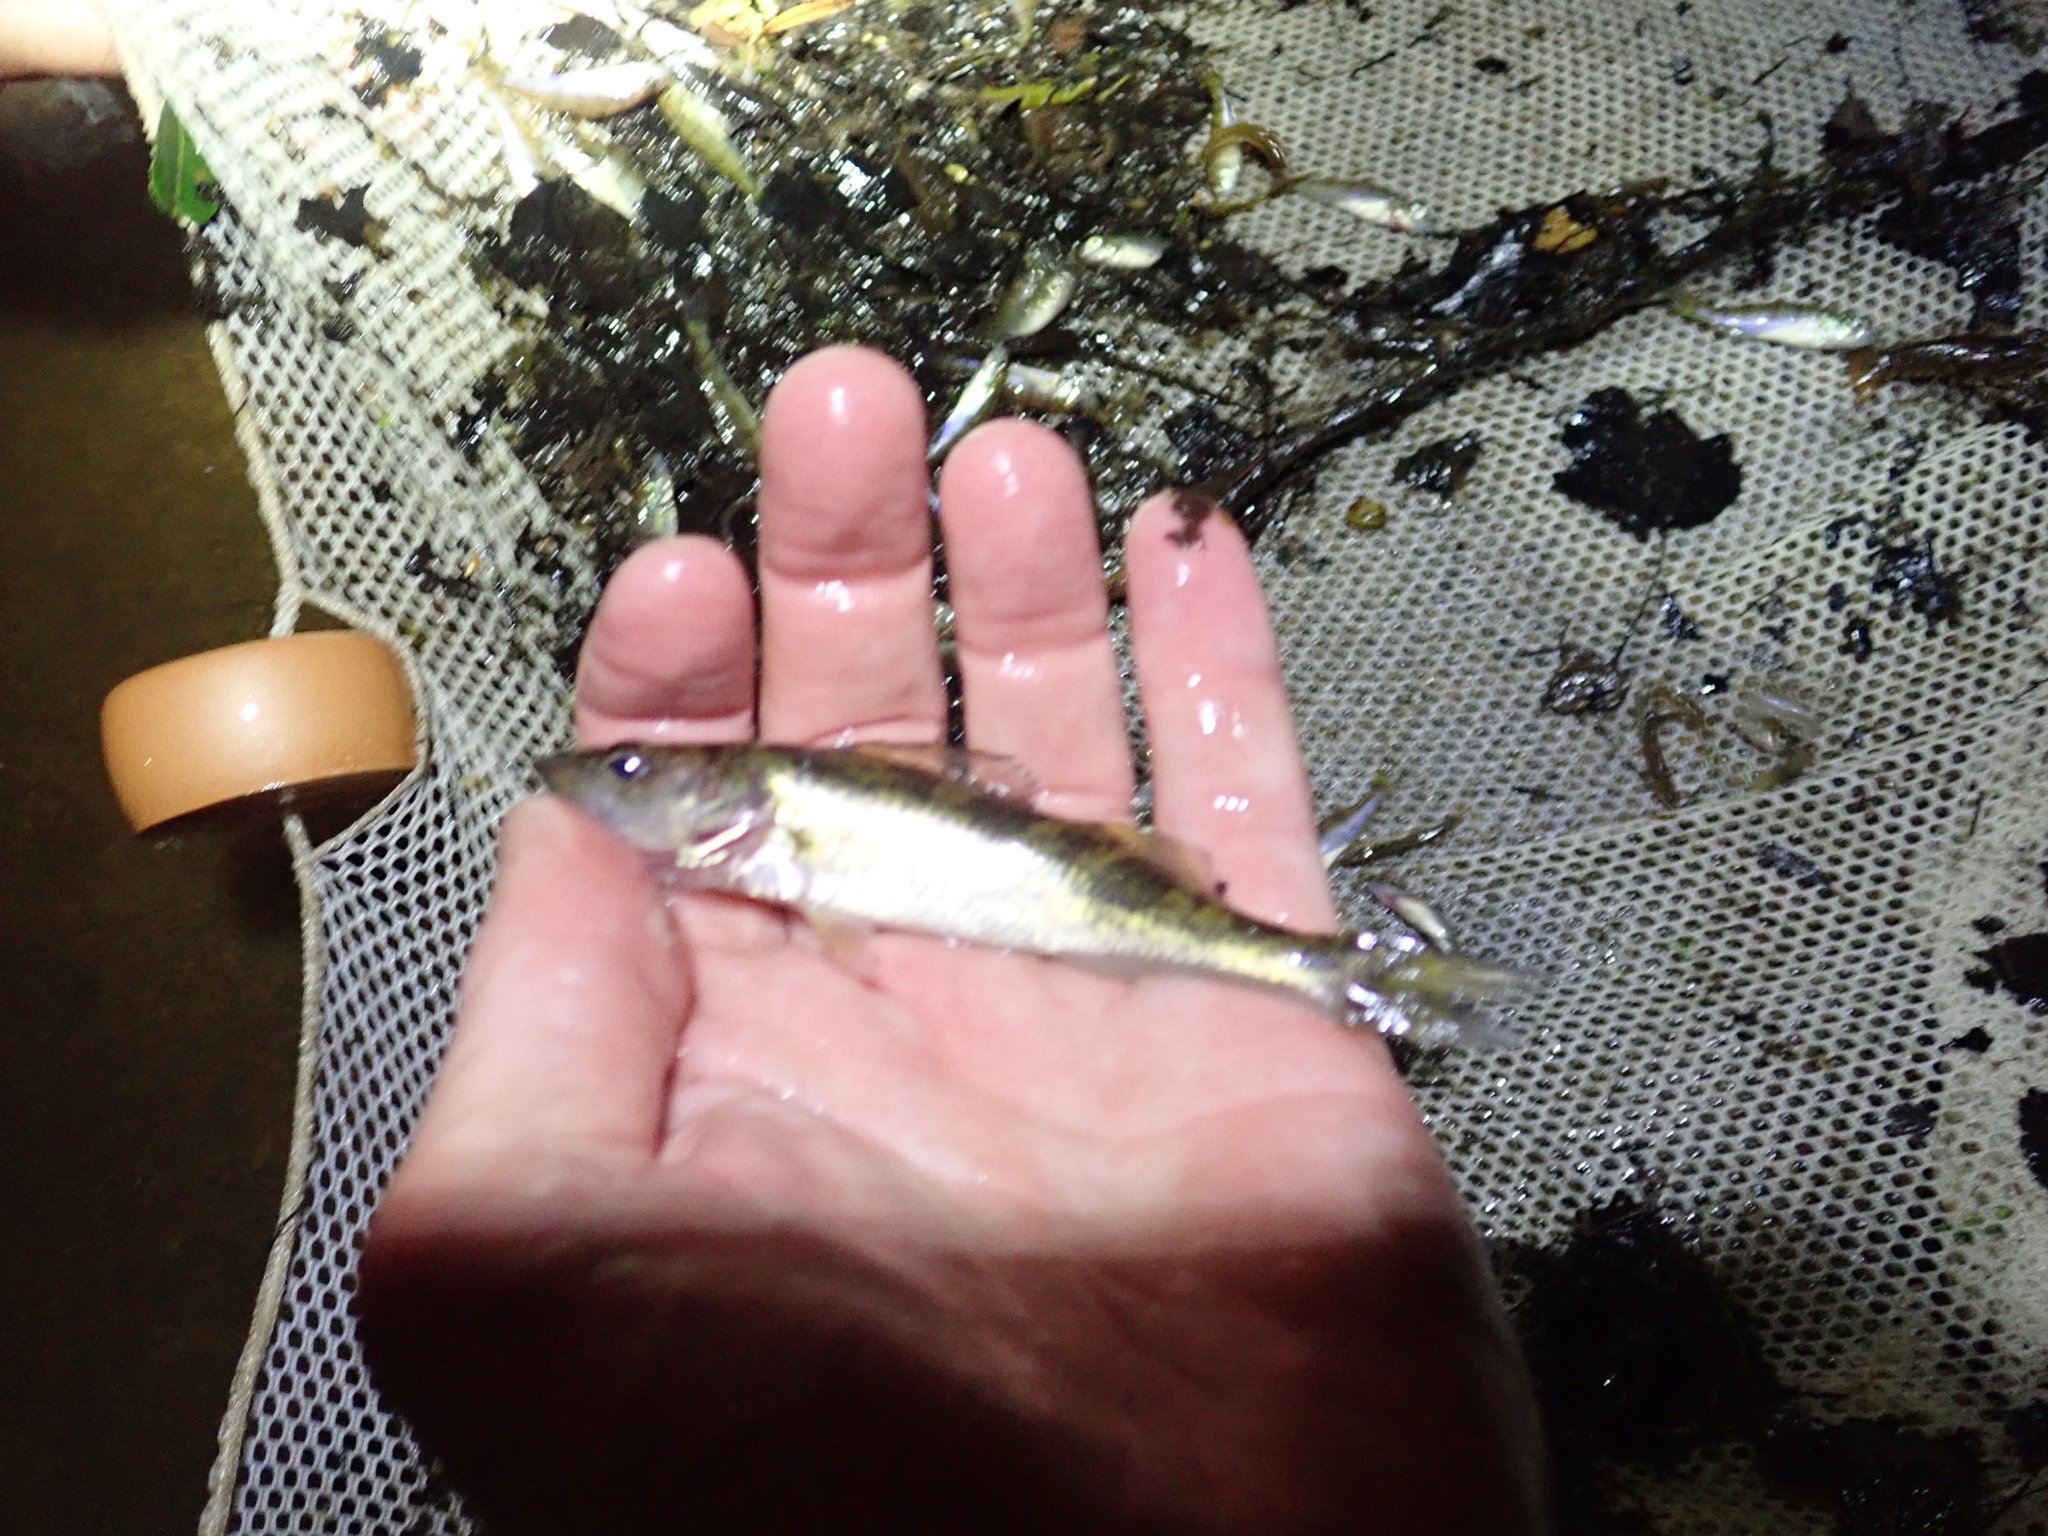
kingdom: Animalia
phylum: Chordata
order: Perciformes
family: Percidae
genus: Sander
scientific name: Sander vitreus
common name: Walleye
